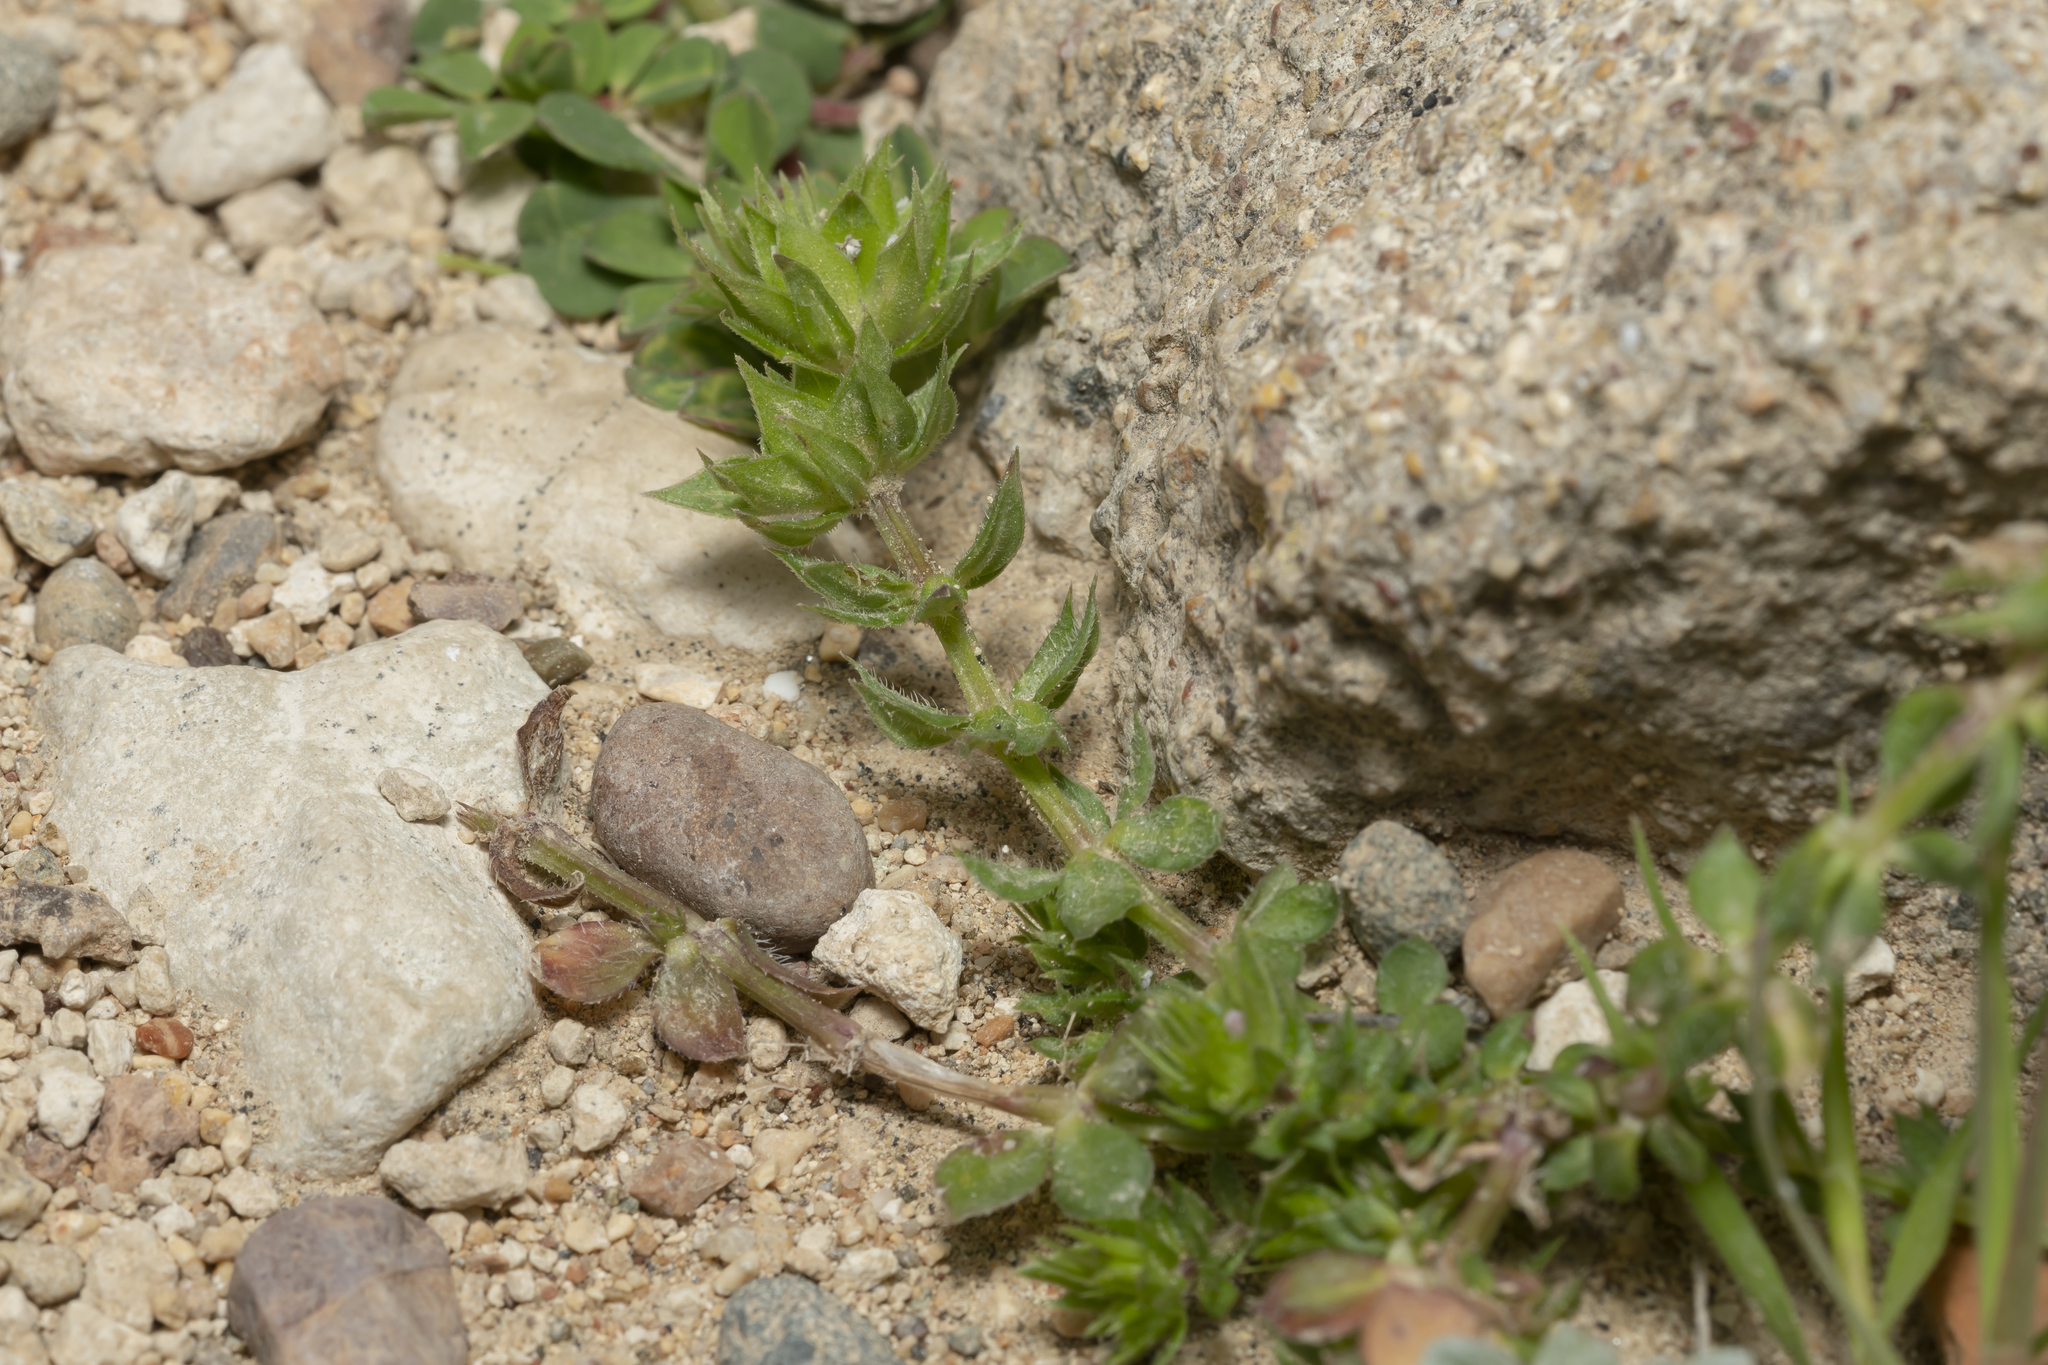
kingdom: Plantae
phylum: Tracheophyta
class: Magnoliopsida
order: Gentianales
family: Rubiaceae
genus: Sherardia
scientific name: Sherardia arvensis
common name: Field madder
